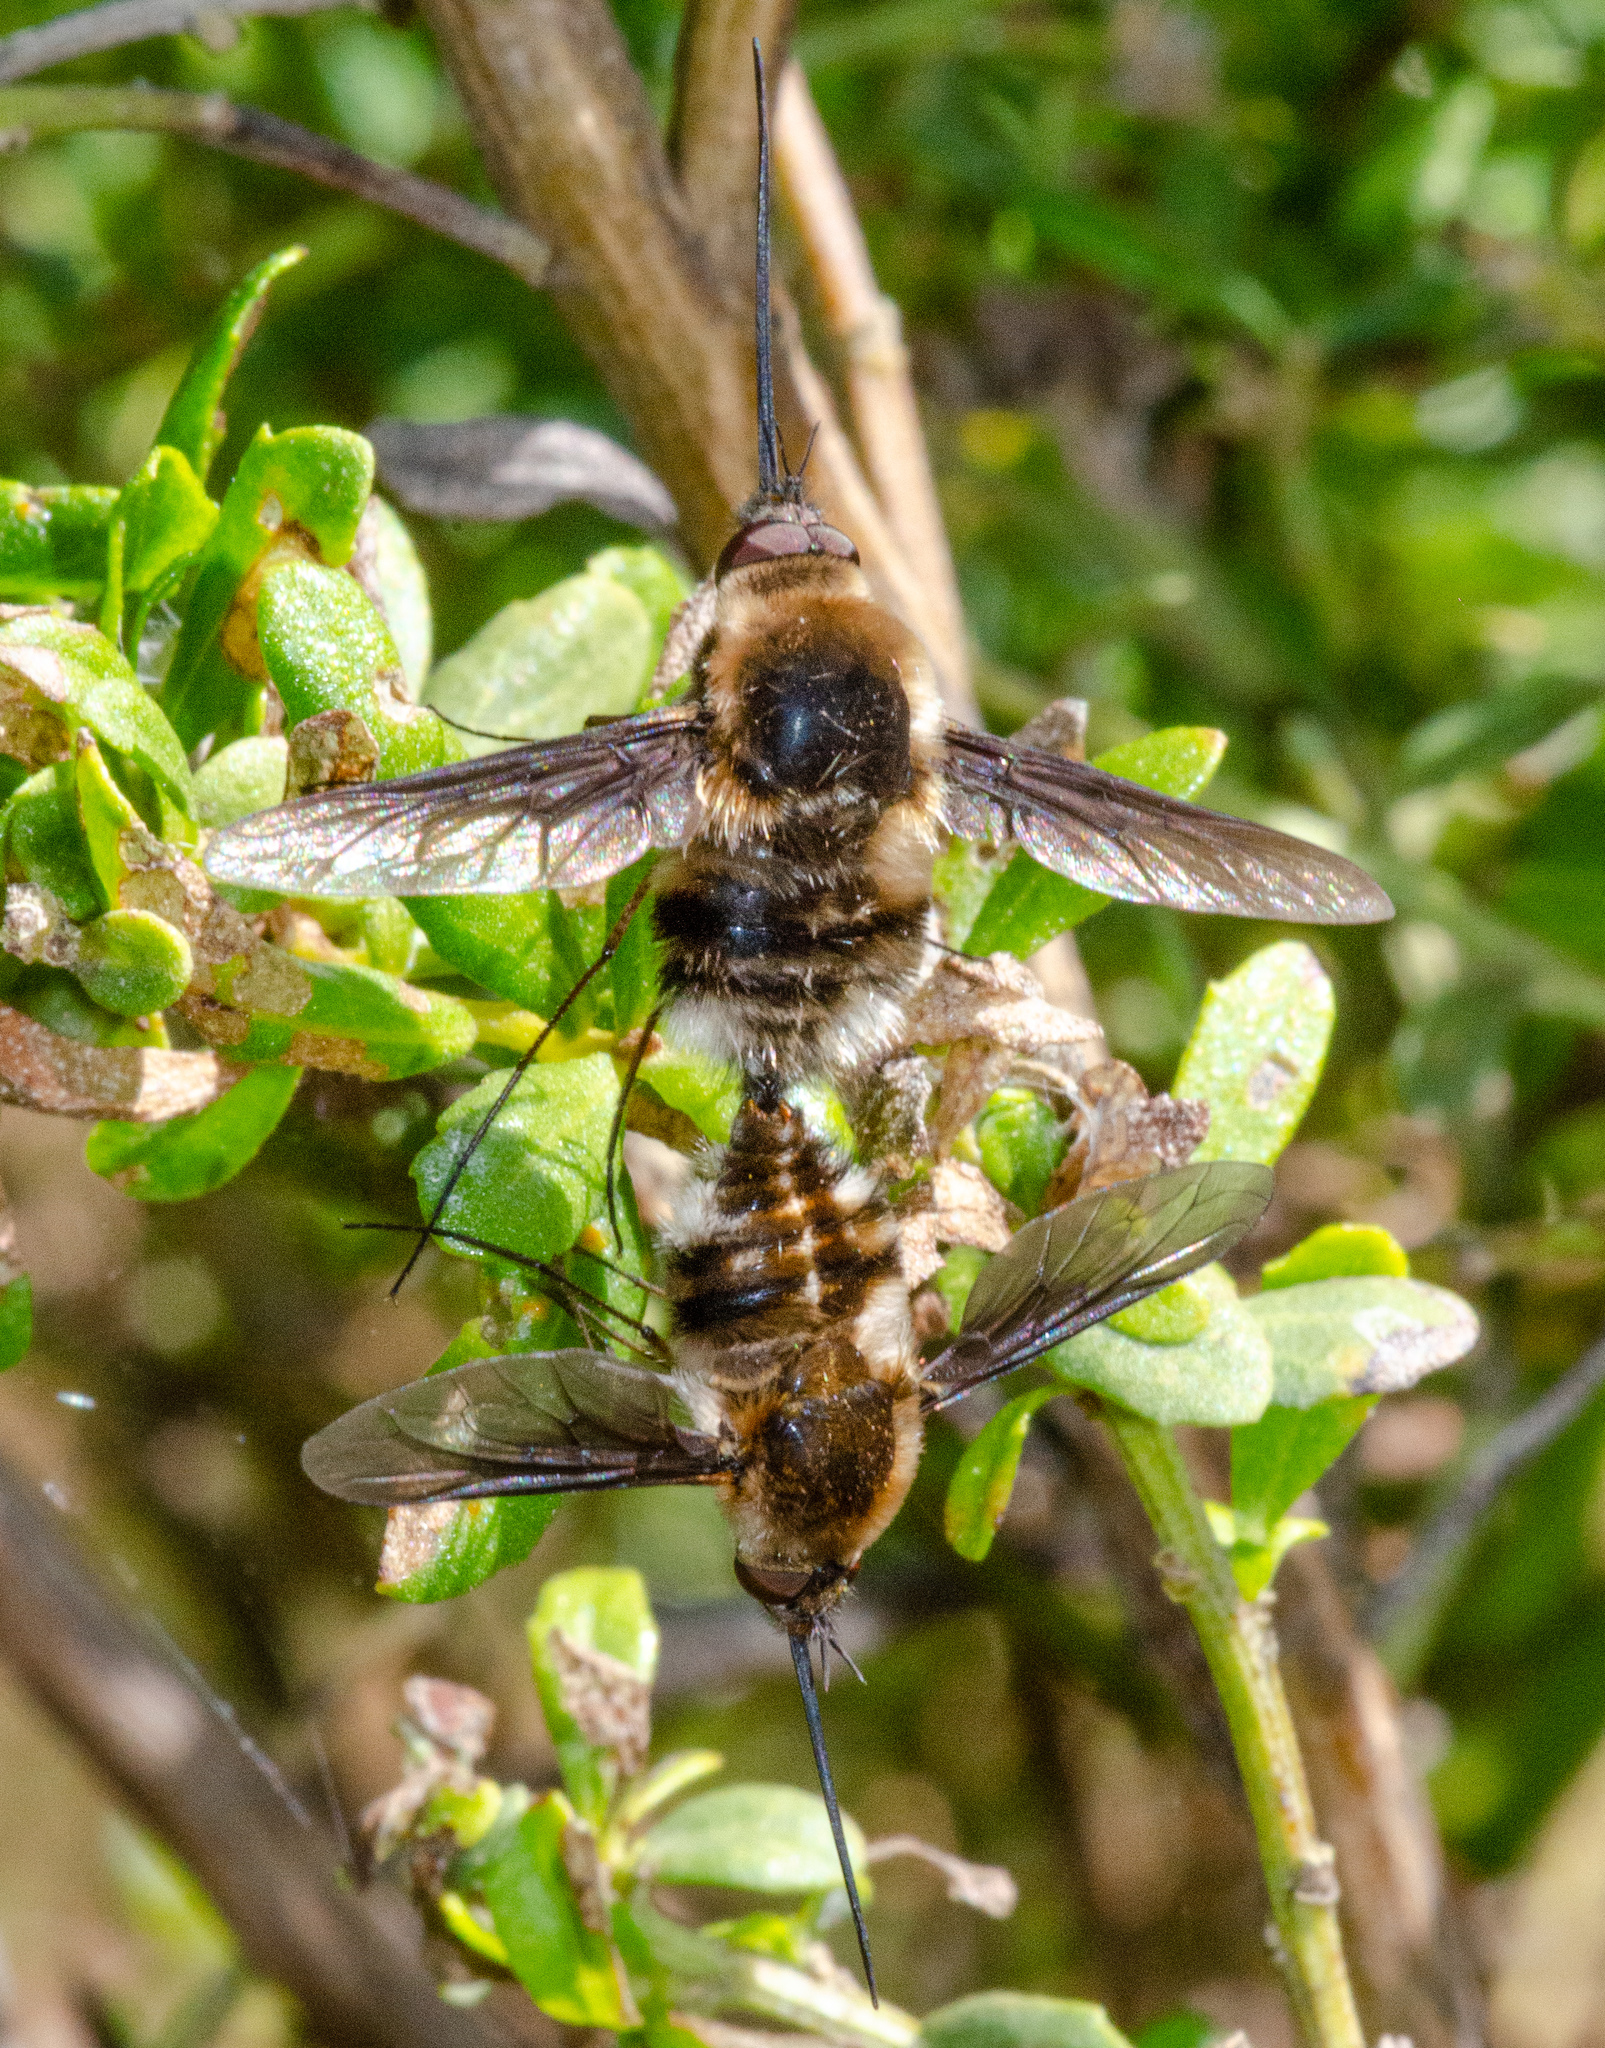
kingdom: Animalia
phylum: Arthropoda
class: Insecta
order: Diptera
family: Bombyliidae
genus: Bombylius
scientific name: Bombylius major
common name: Bee fly
